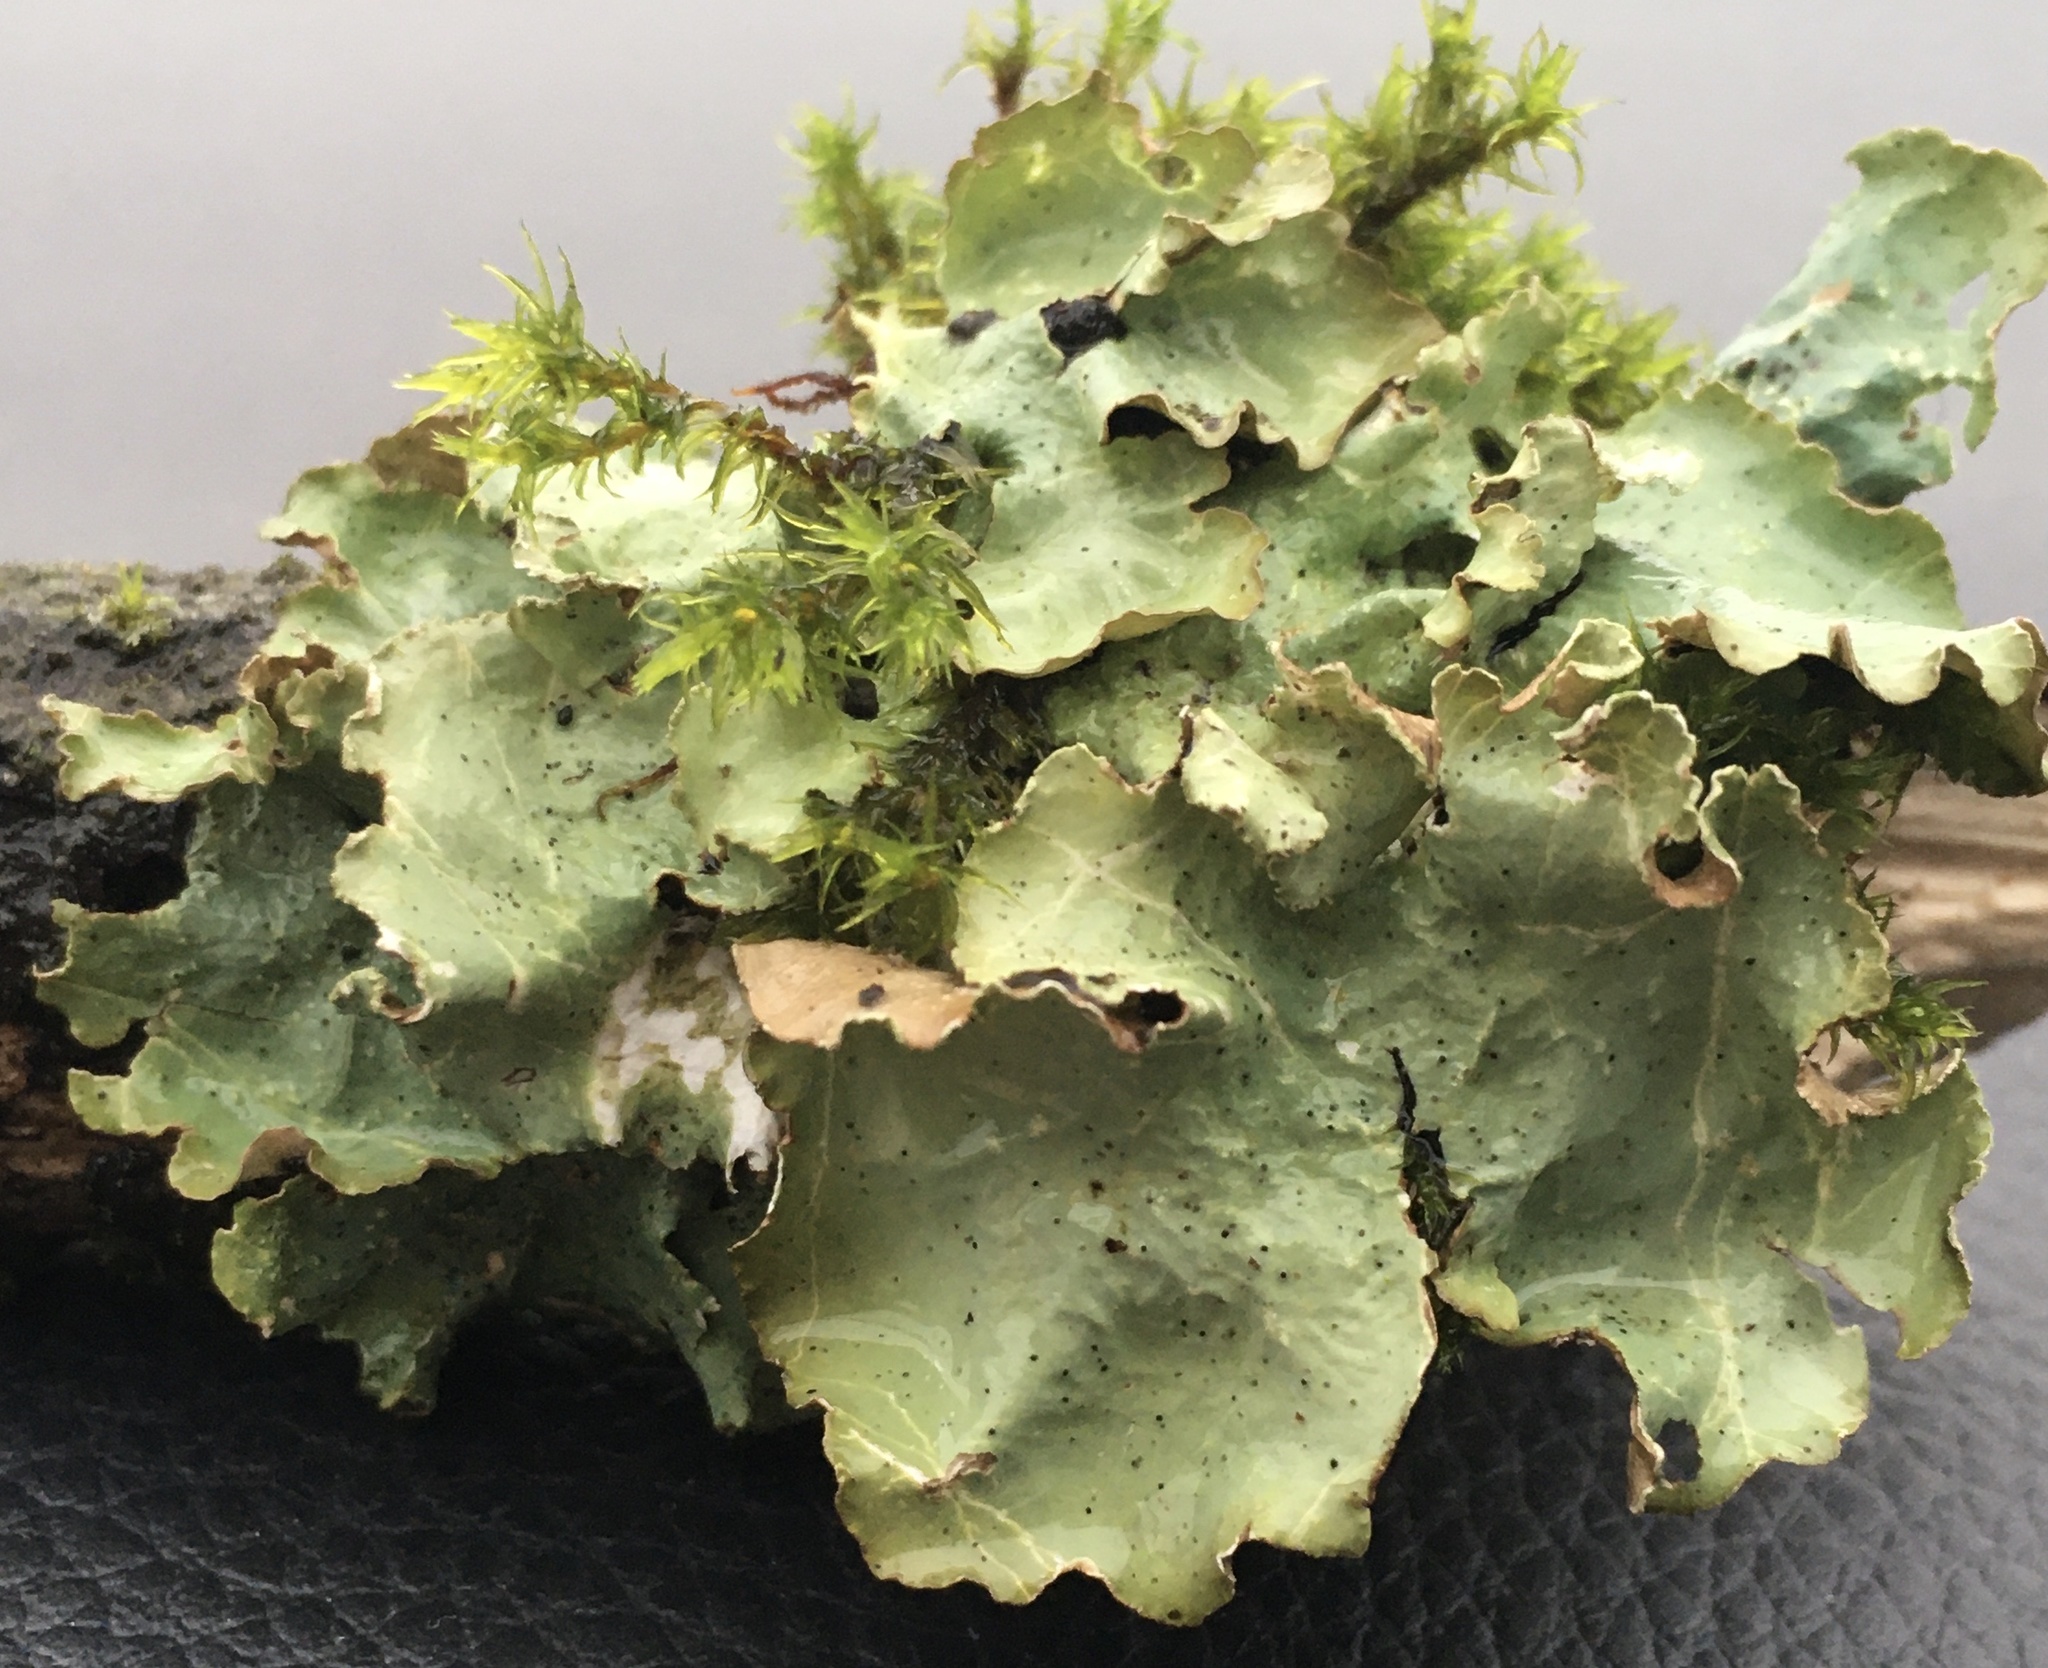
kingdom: Fungi
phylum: Ascomycota
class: Lecanoromycetes
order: Lecanorales
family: Parmeliaceae
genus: Cetrelia
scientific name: Cetrelia cetrarioides
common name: Speckled iceland lichen
